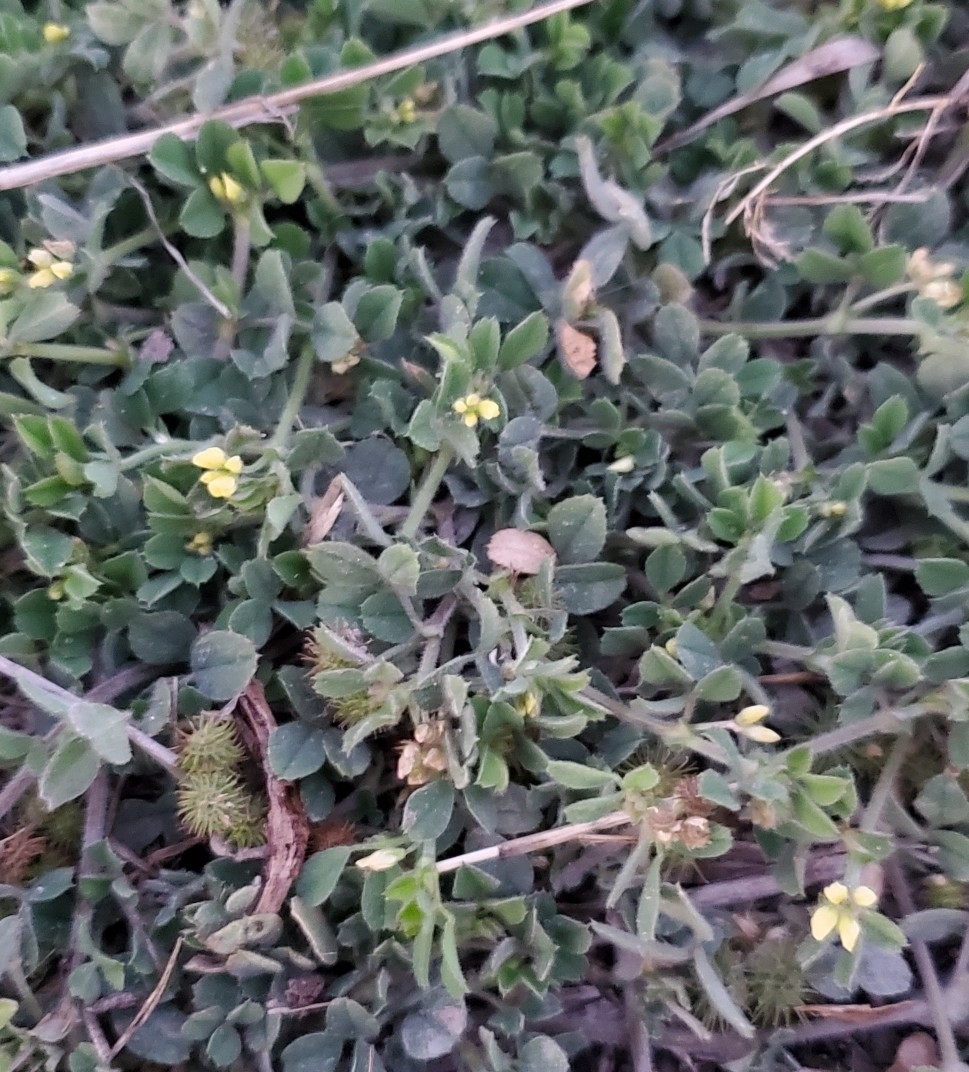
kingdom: Plantae
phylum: Tracheophyta
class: Magnoliopsida
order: Fabales
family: Fabaceae
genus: Medicago
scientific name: Medicago minima
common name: Little bur-clover
